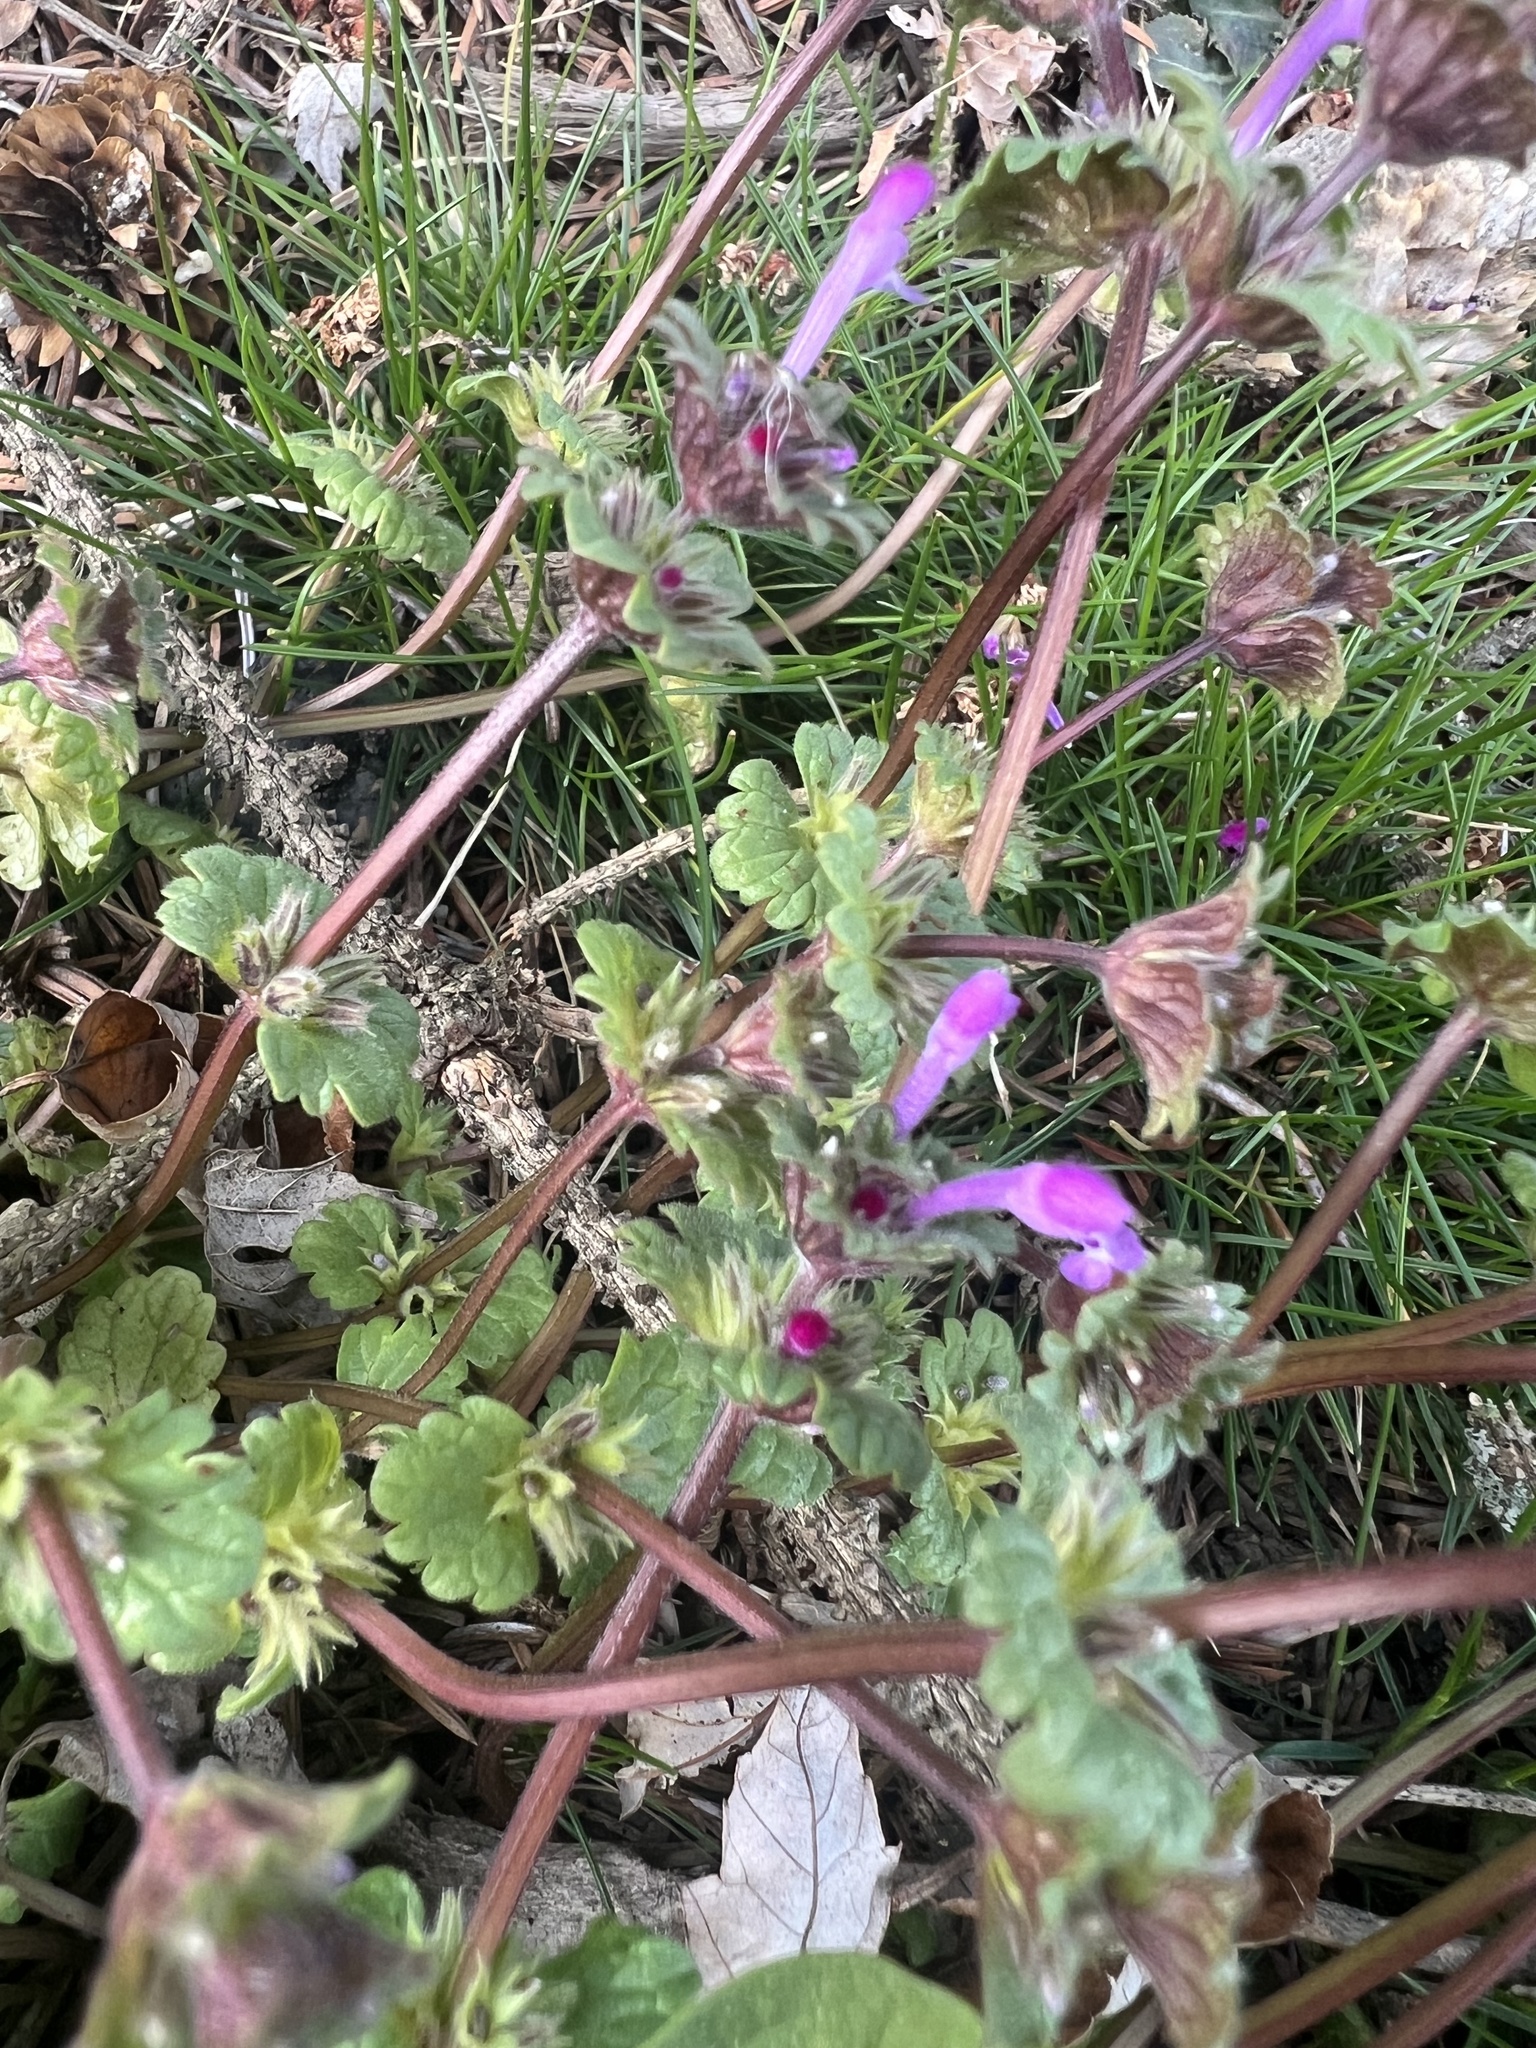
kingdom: Plantae
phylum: Tracheophyta
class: Magnoliopsida
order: Lamiales
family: Lamiaceae
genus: Lamium
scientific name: Lamium amplexicaule
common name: Henbit dead-nettle
